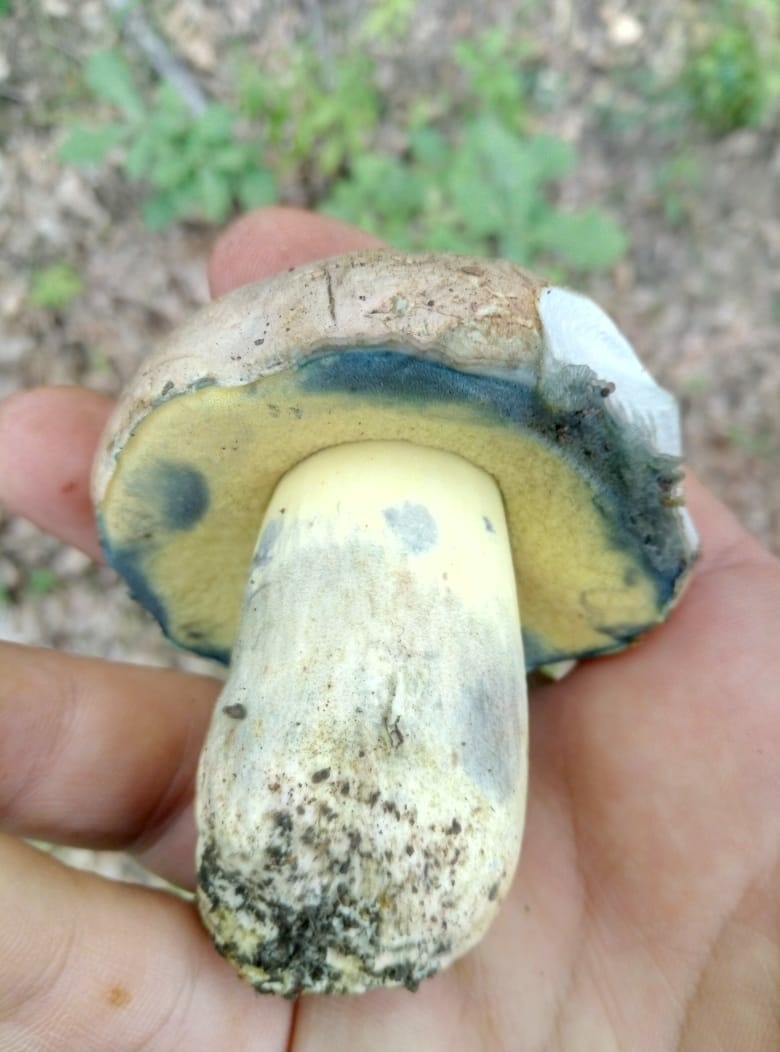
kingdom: Fungi
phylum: Basidiomycota
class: Agaricomycetes
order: Boletales
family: Boletaceae
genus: Caloboletus
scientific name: Caloboletus radicans
